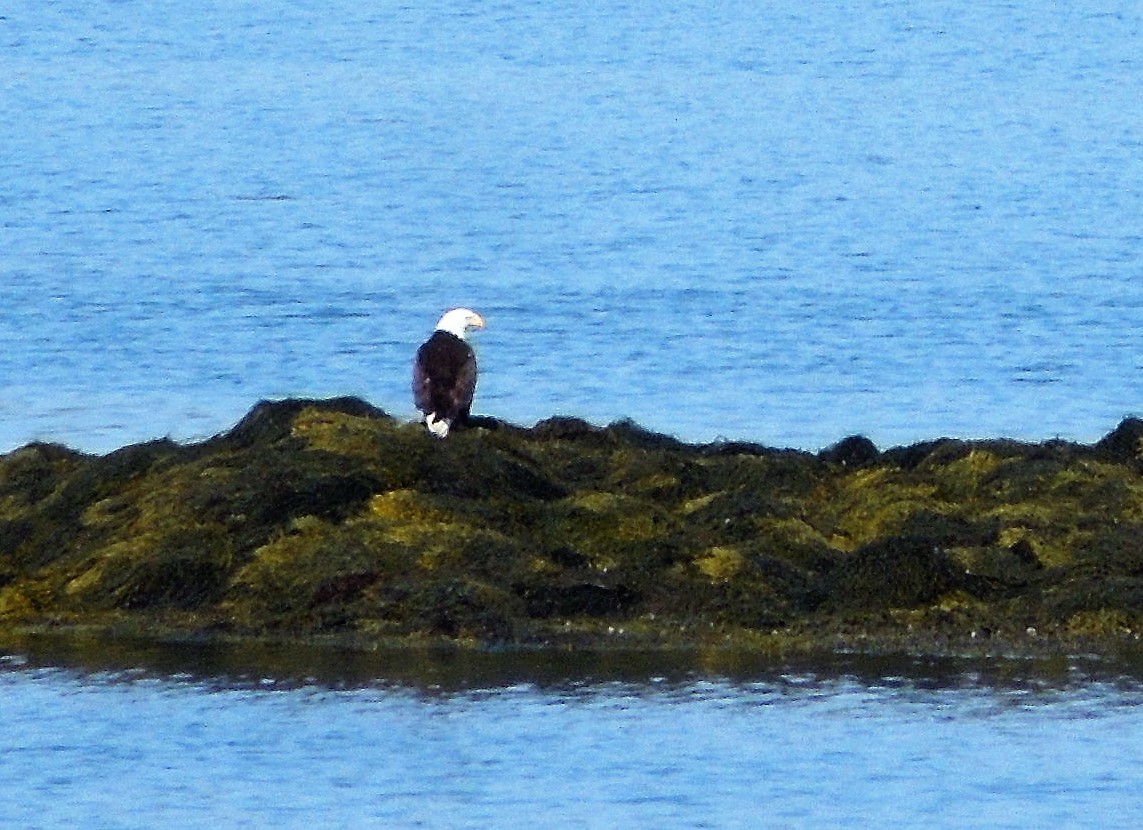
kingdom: Animalia
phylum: Chordata
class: Aves
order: Accipitriformes
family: Accipitridae
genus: Haliaeetus
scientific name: Haliaeetus leucocephalus
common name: Bald eagle
